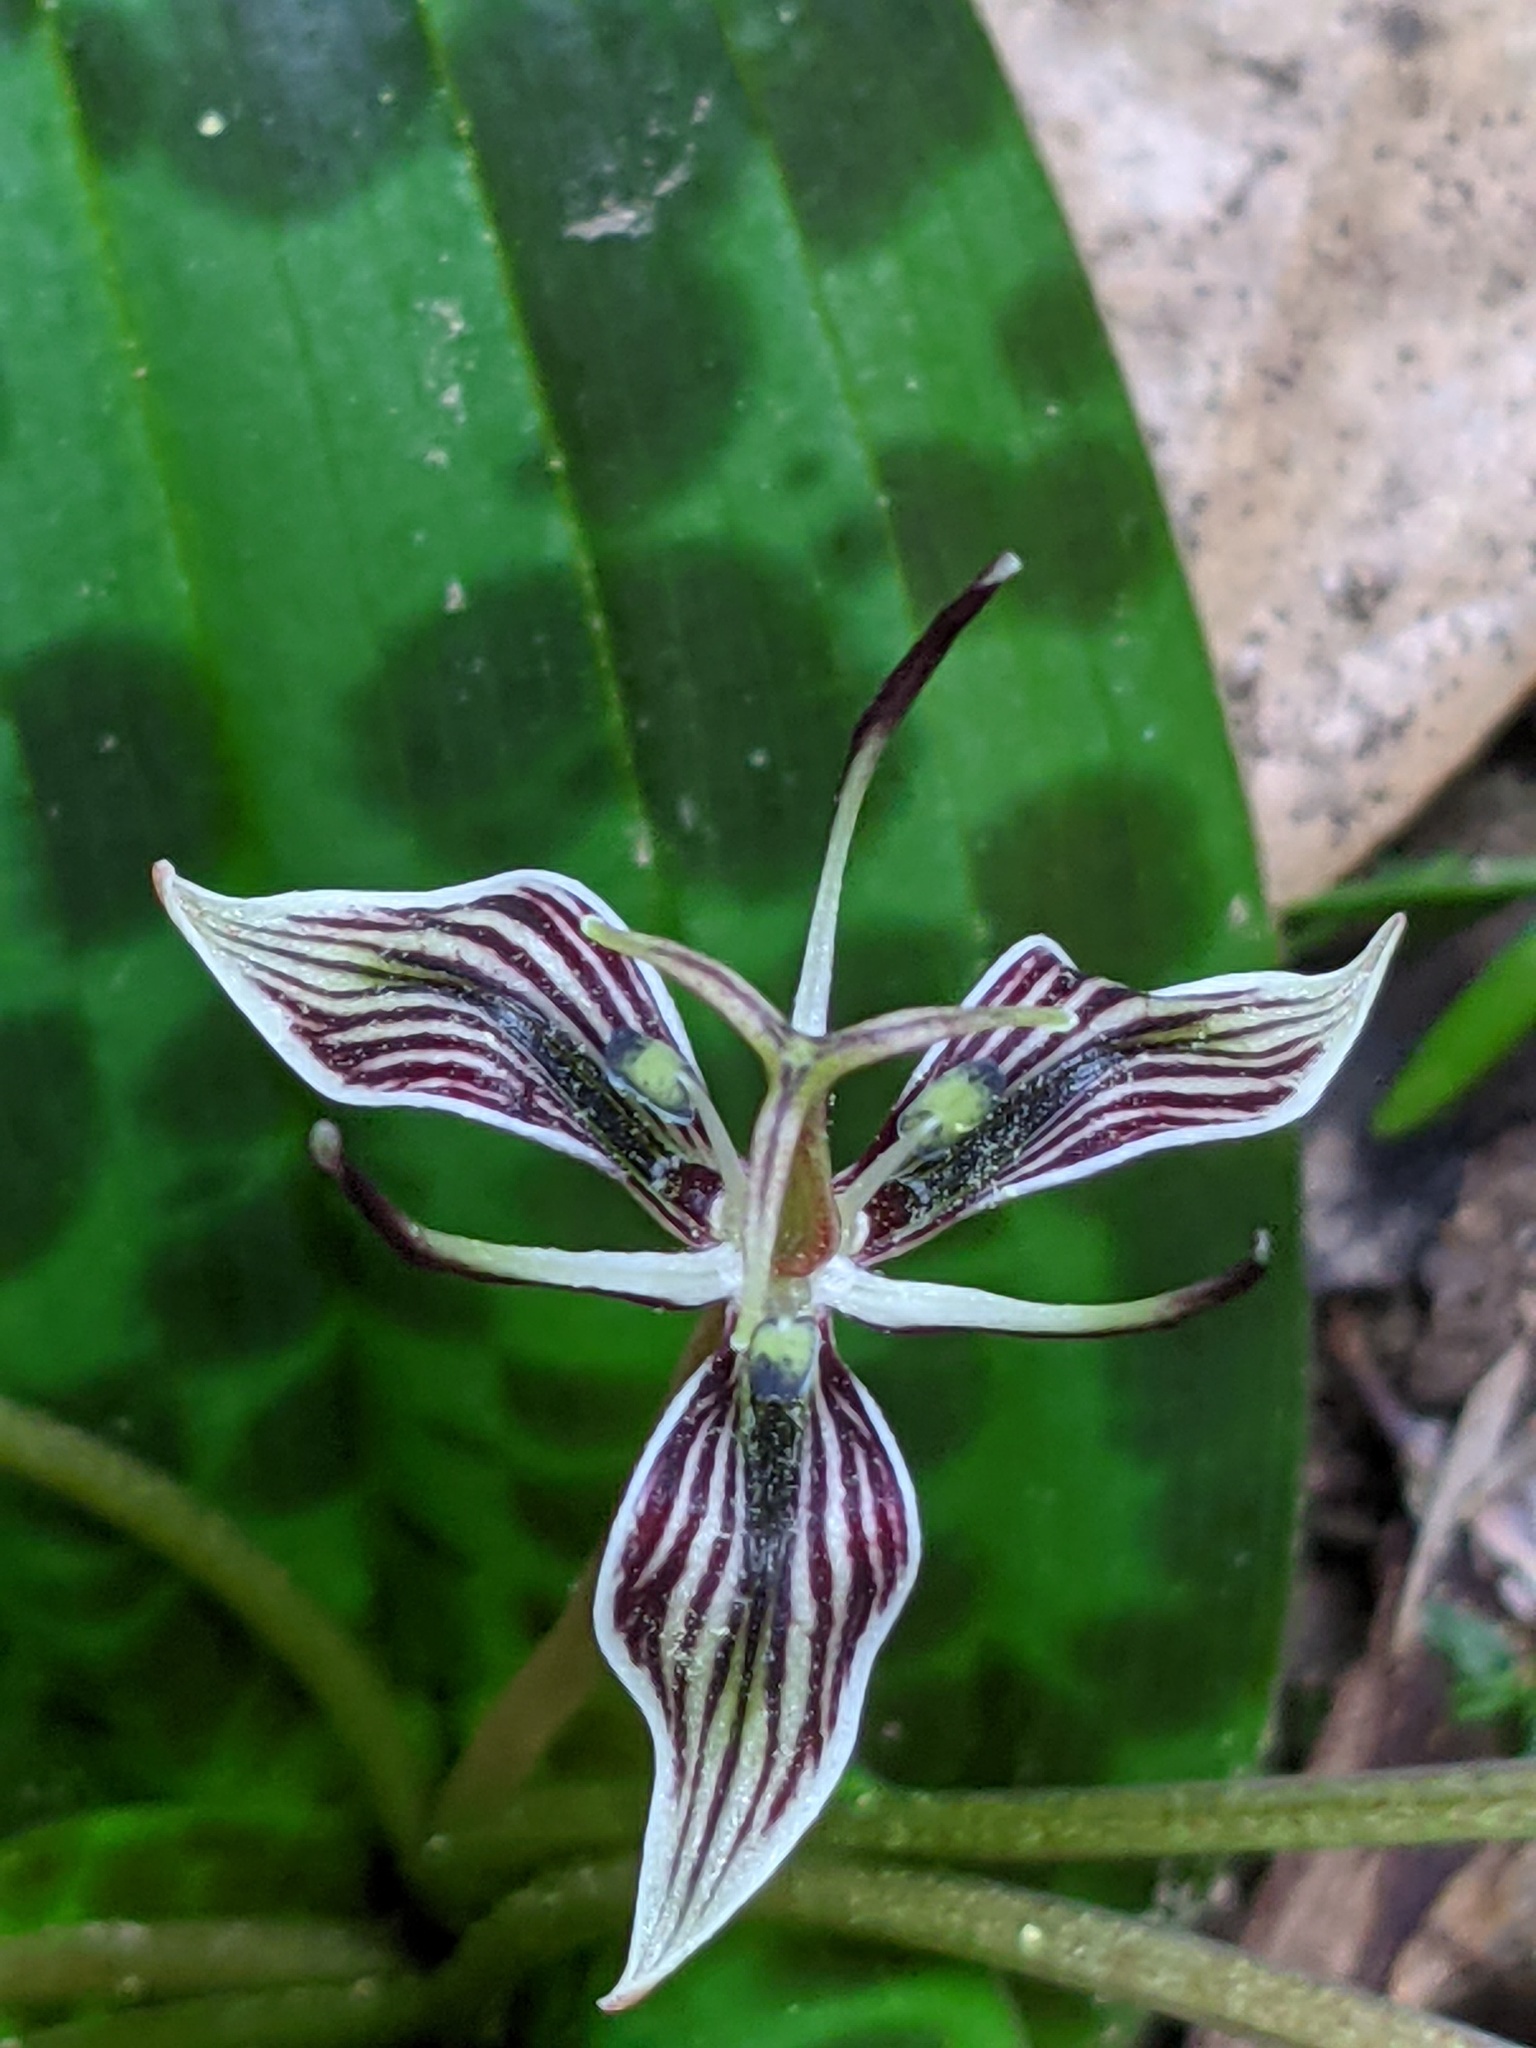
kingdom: Plantae
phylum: Tracheophyta
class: Liliopsida
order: Liliales
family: Liliaceae
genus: Scoliopus
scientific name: Scoliopus bigelovii
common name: Foetid adder's-tongue
